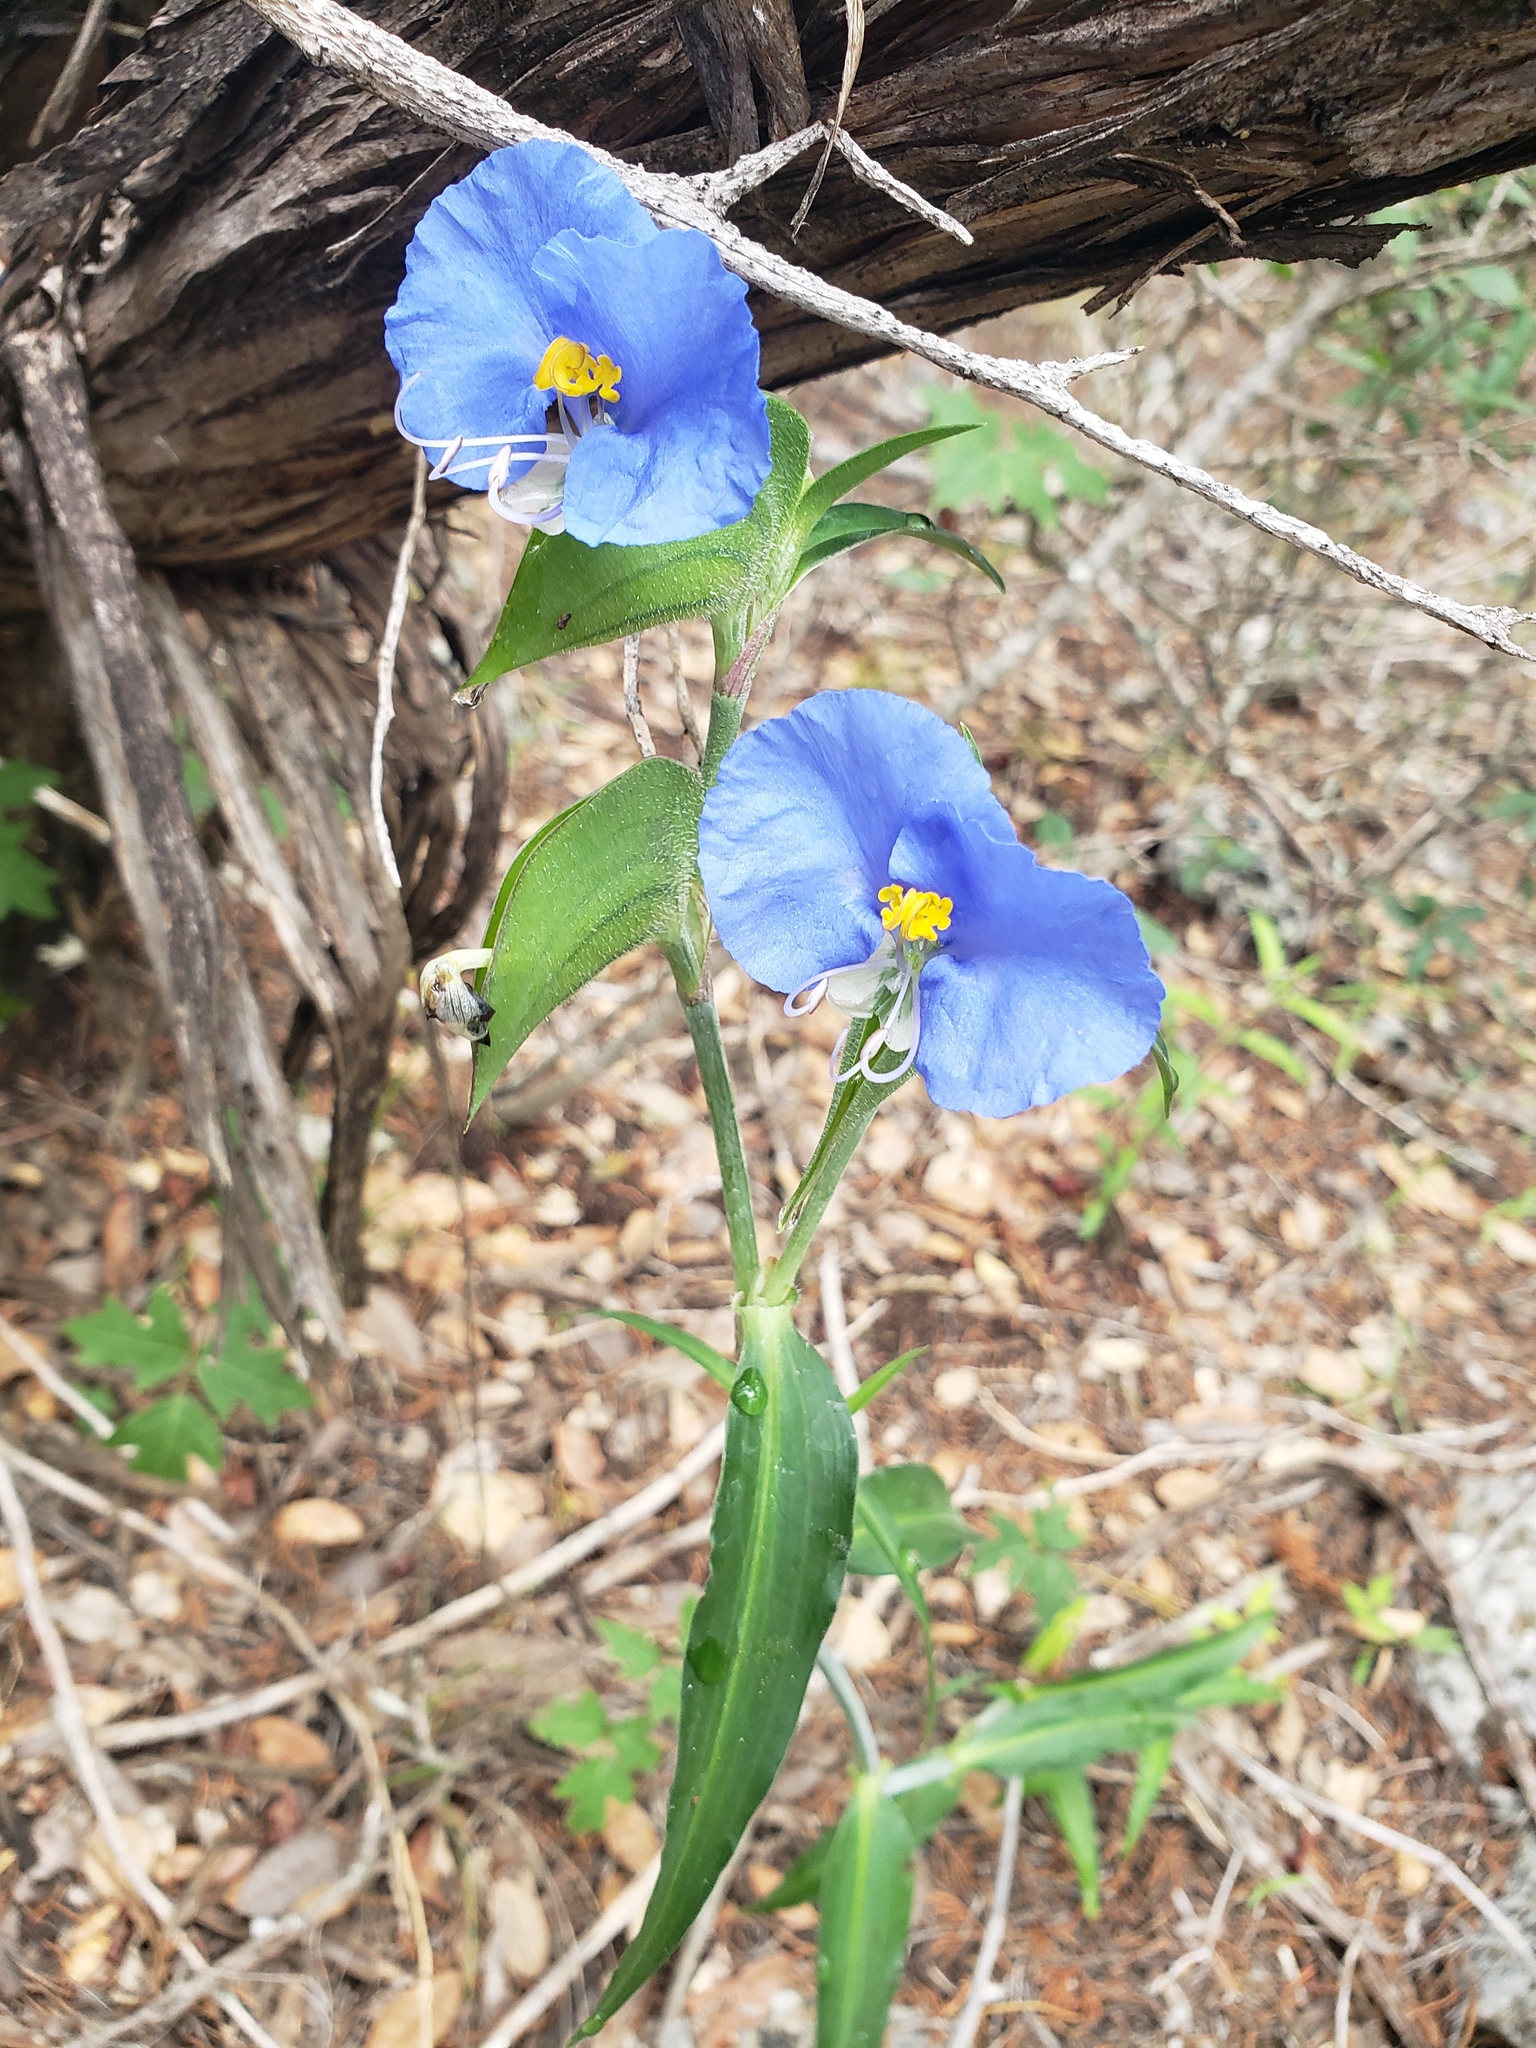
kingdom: Plantae
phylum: Tracheophyta
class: Liliopsida
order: Commelinales
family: Commelinaceae
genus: Commelina
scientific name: Commelina erecta
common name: Blousel blommetjie
